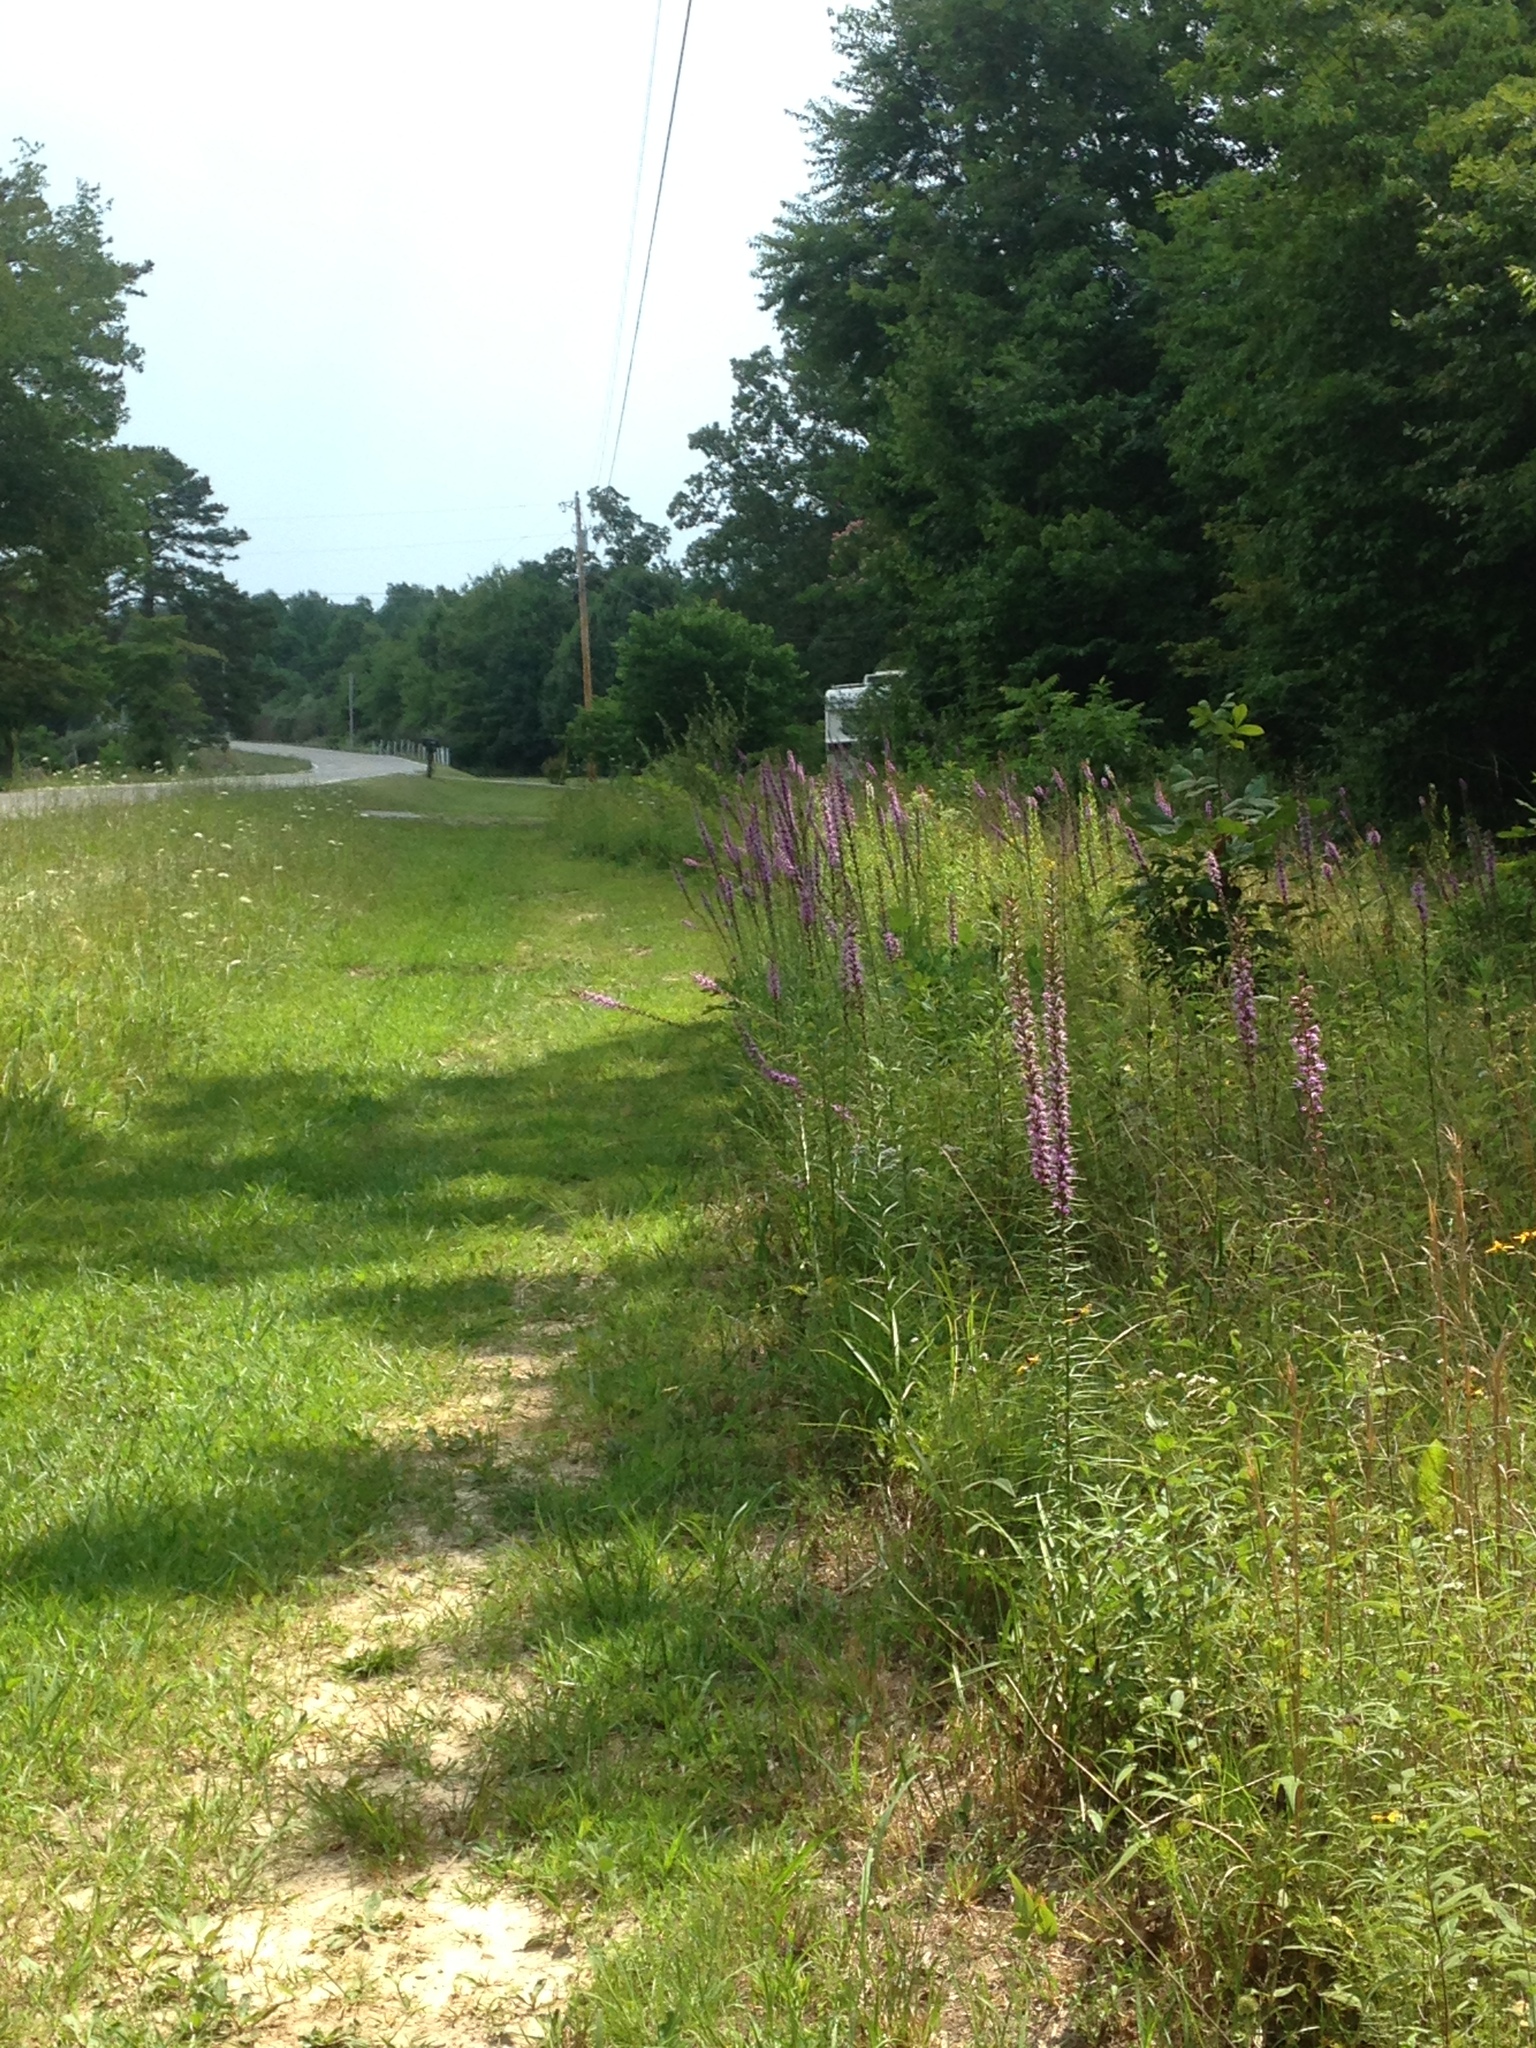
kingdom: Plantae
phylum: Tracheophyta
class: Magnoliopsida
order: Asterales
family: Asteraceae
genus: Liatris
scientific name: Liatris spicata
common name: Florist gayfeather
